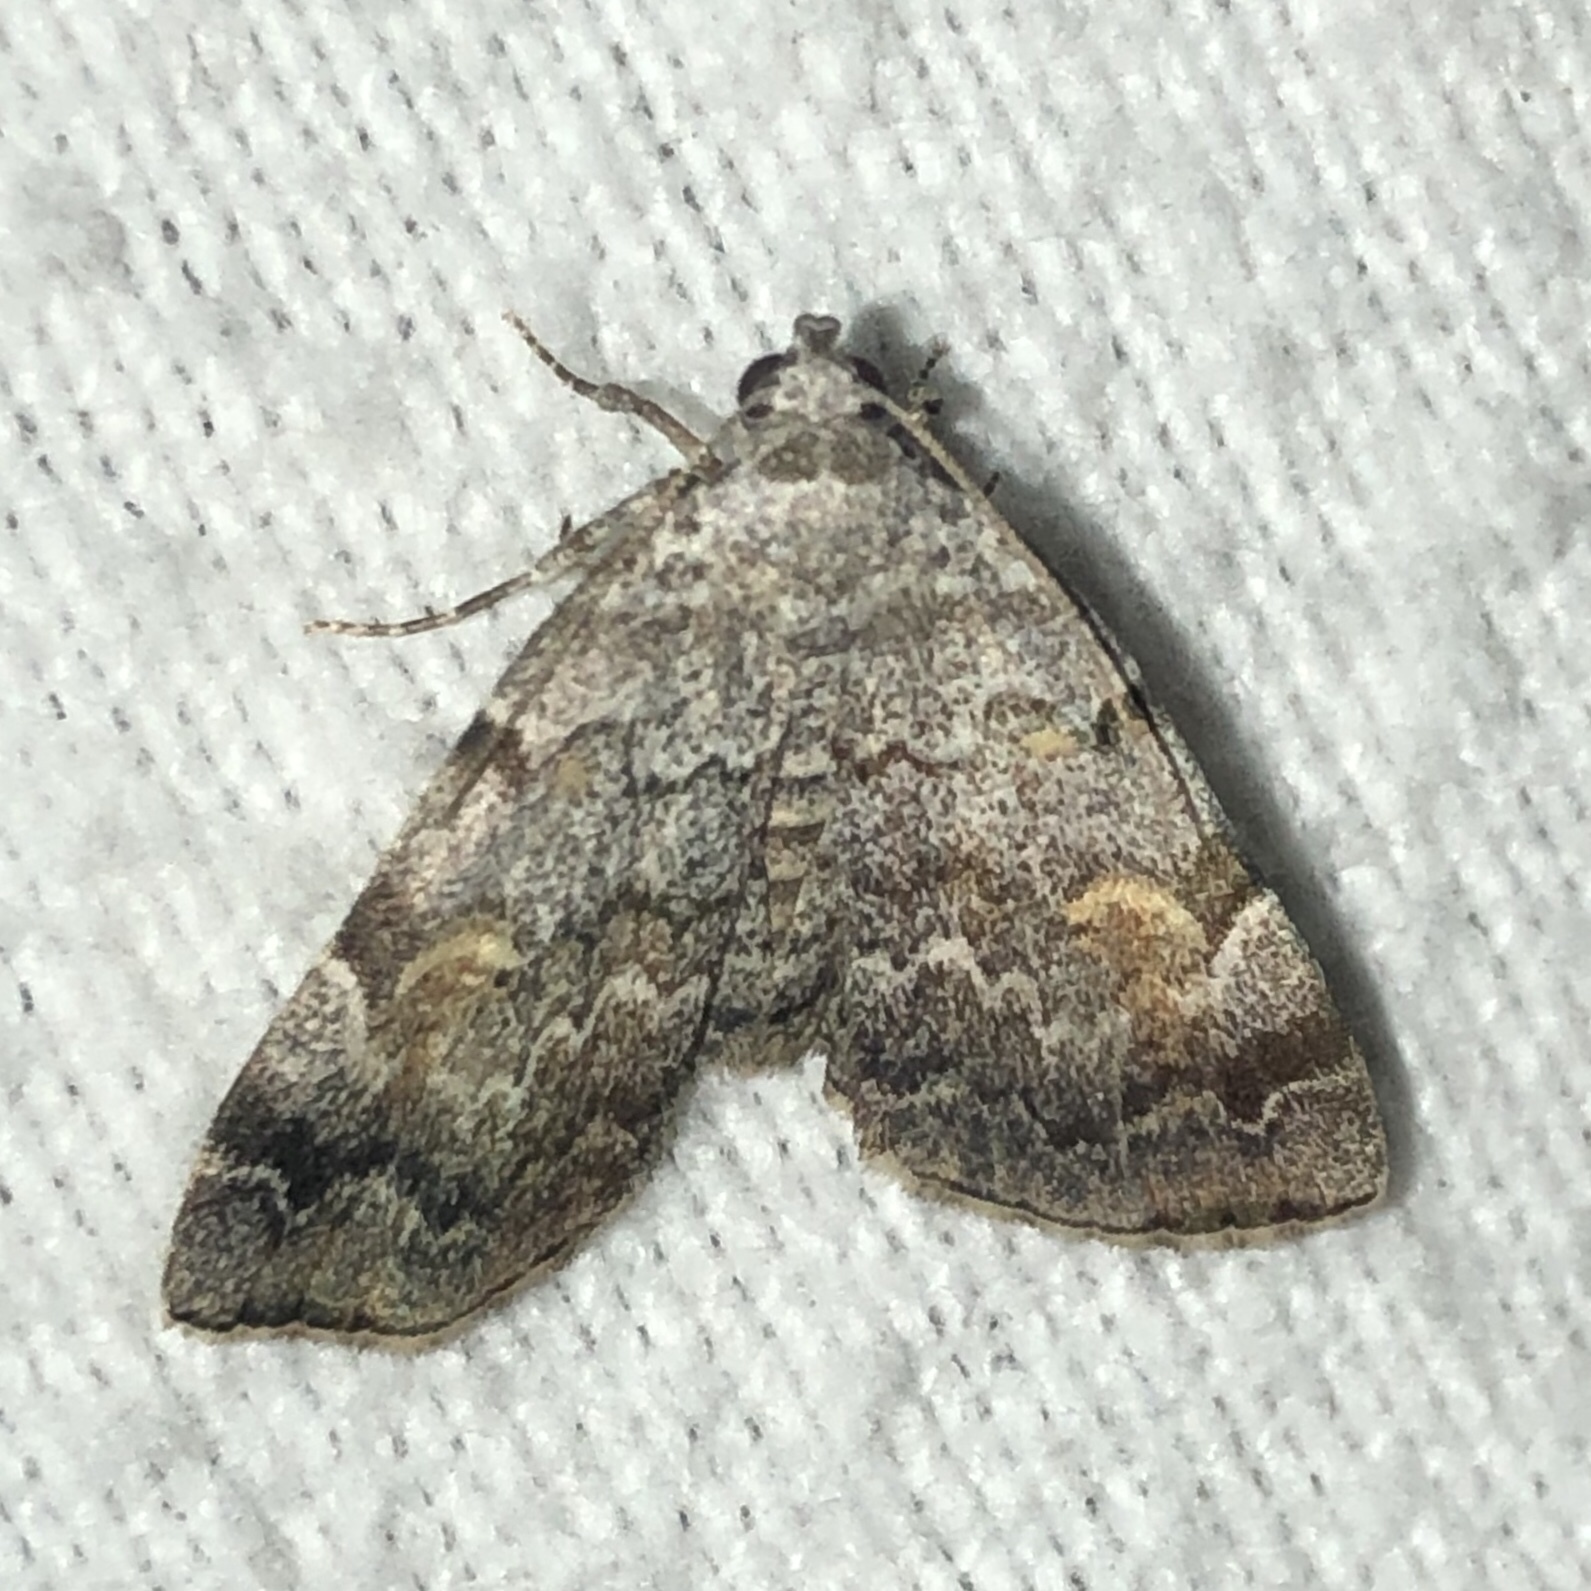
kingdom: Animalia
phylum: Arthropoda
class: Insecta
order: Lepidoptera
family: Erebidae
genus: Idia
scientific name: Idia americalis
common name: American idia moth
